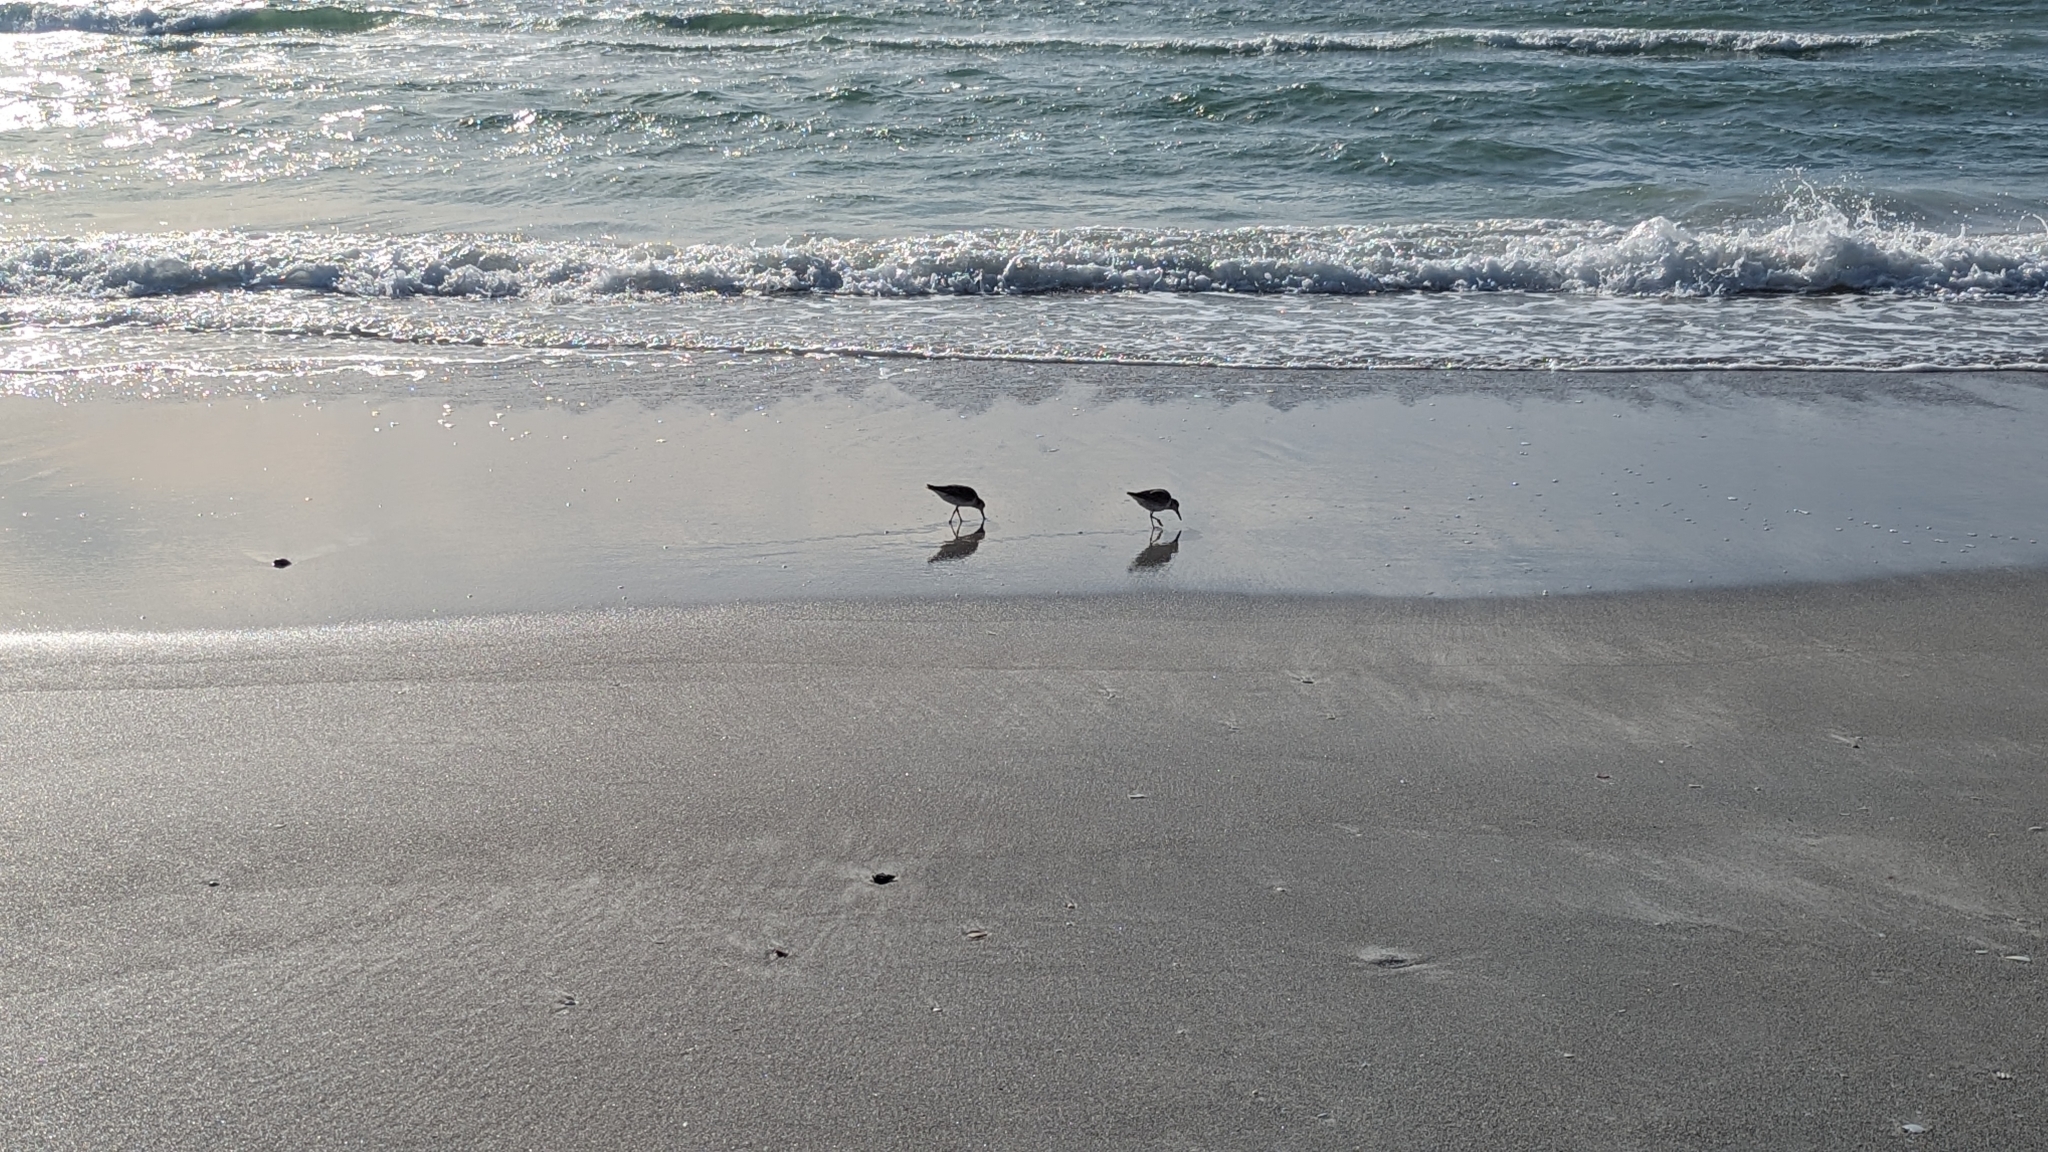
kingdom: Animalia
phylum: Chordata
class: Aves
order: Charadriiformes
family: Scolopacidae
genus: Limnodromus
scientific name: Limnodromus griseus
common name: Short-billed dowitcher
